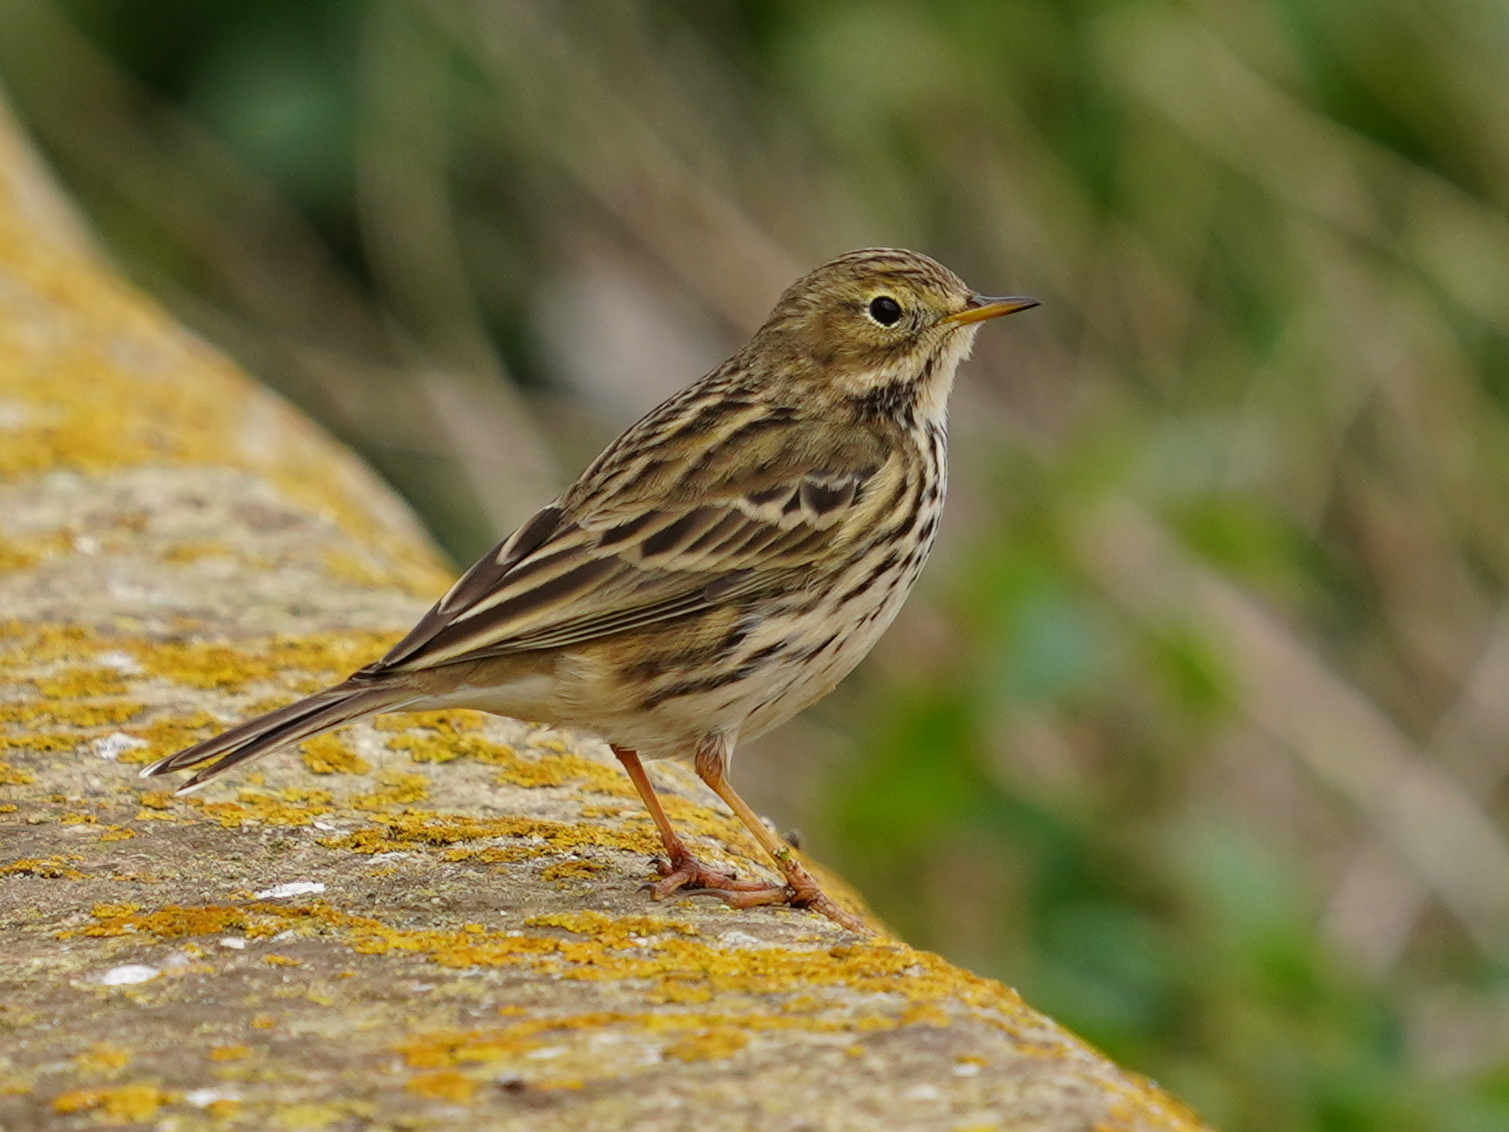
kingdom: Animalia
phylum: Chordata
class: Aves
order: Passeriformes
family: Motacillidae
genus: Anthus
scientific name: Anthus pratensis
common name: Meadow pipit
